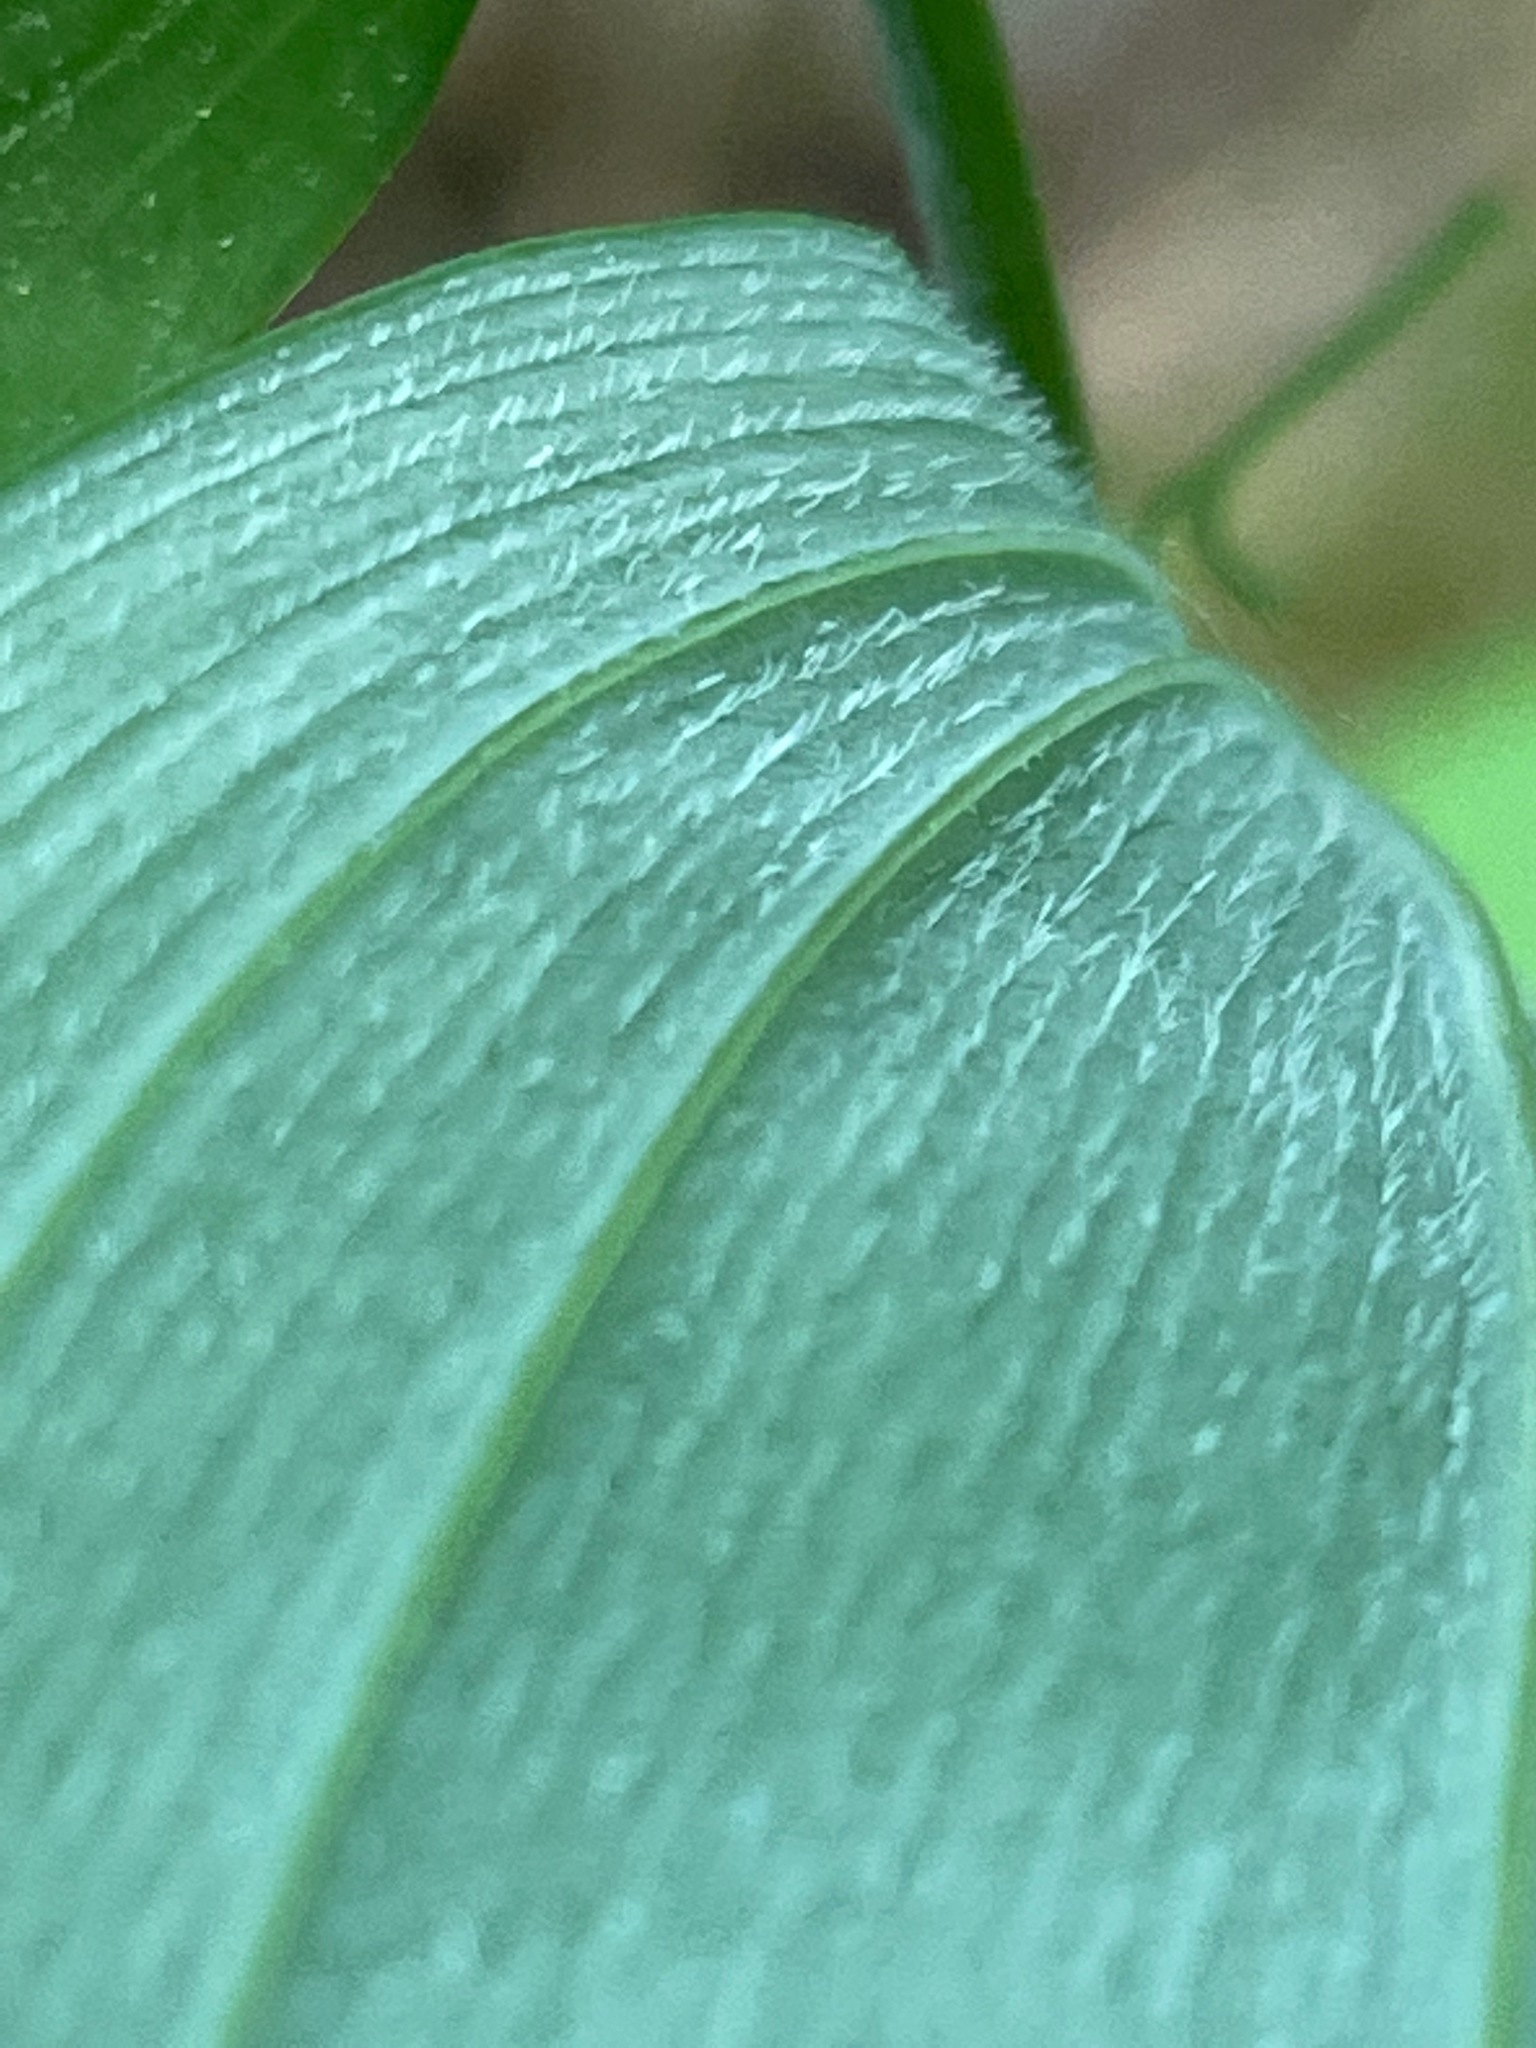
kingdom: Plantae
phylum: Tracheophyta
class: Liliopsida
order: Asparagales
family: Asparagaceae
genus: Polygonatum
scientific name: Polygonatum pubescens
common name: Downy solomon's seal
